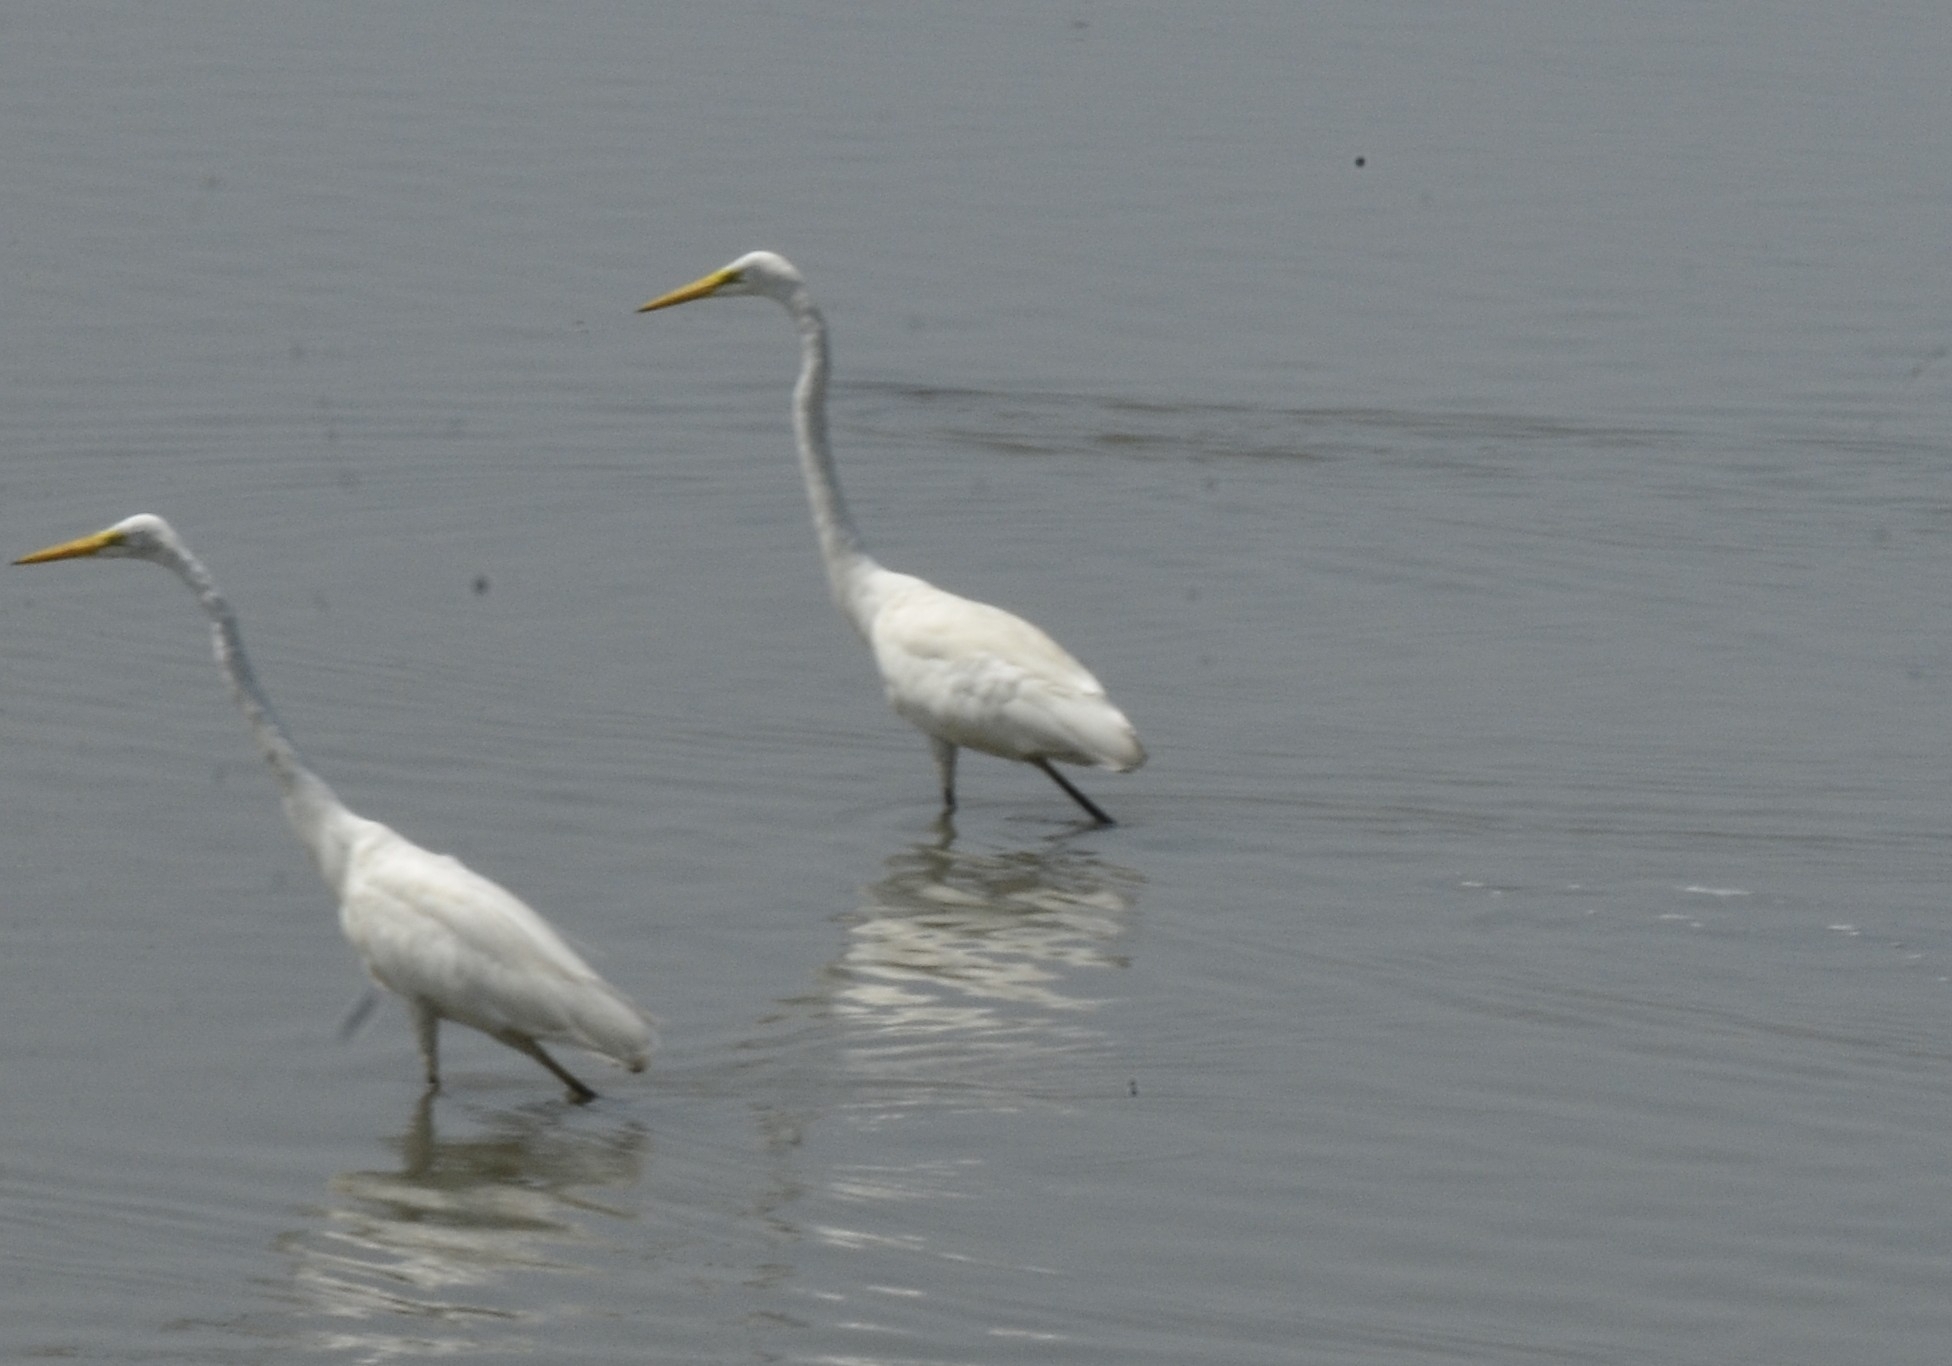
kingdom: Animalia
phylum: Chordata
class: Aves
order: Pelecaniformes
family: Ardeidae
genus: Ardea
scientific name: Ardea alba
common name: Great egret
